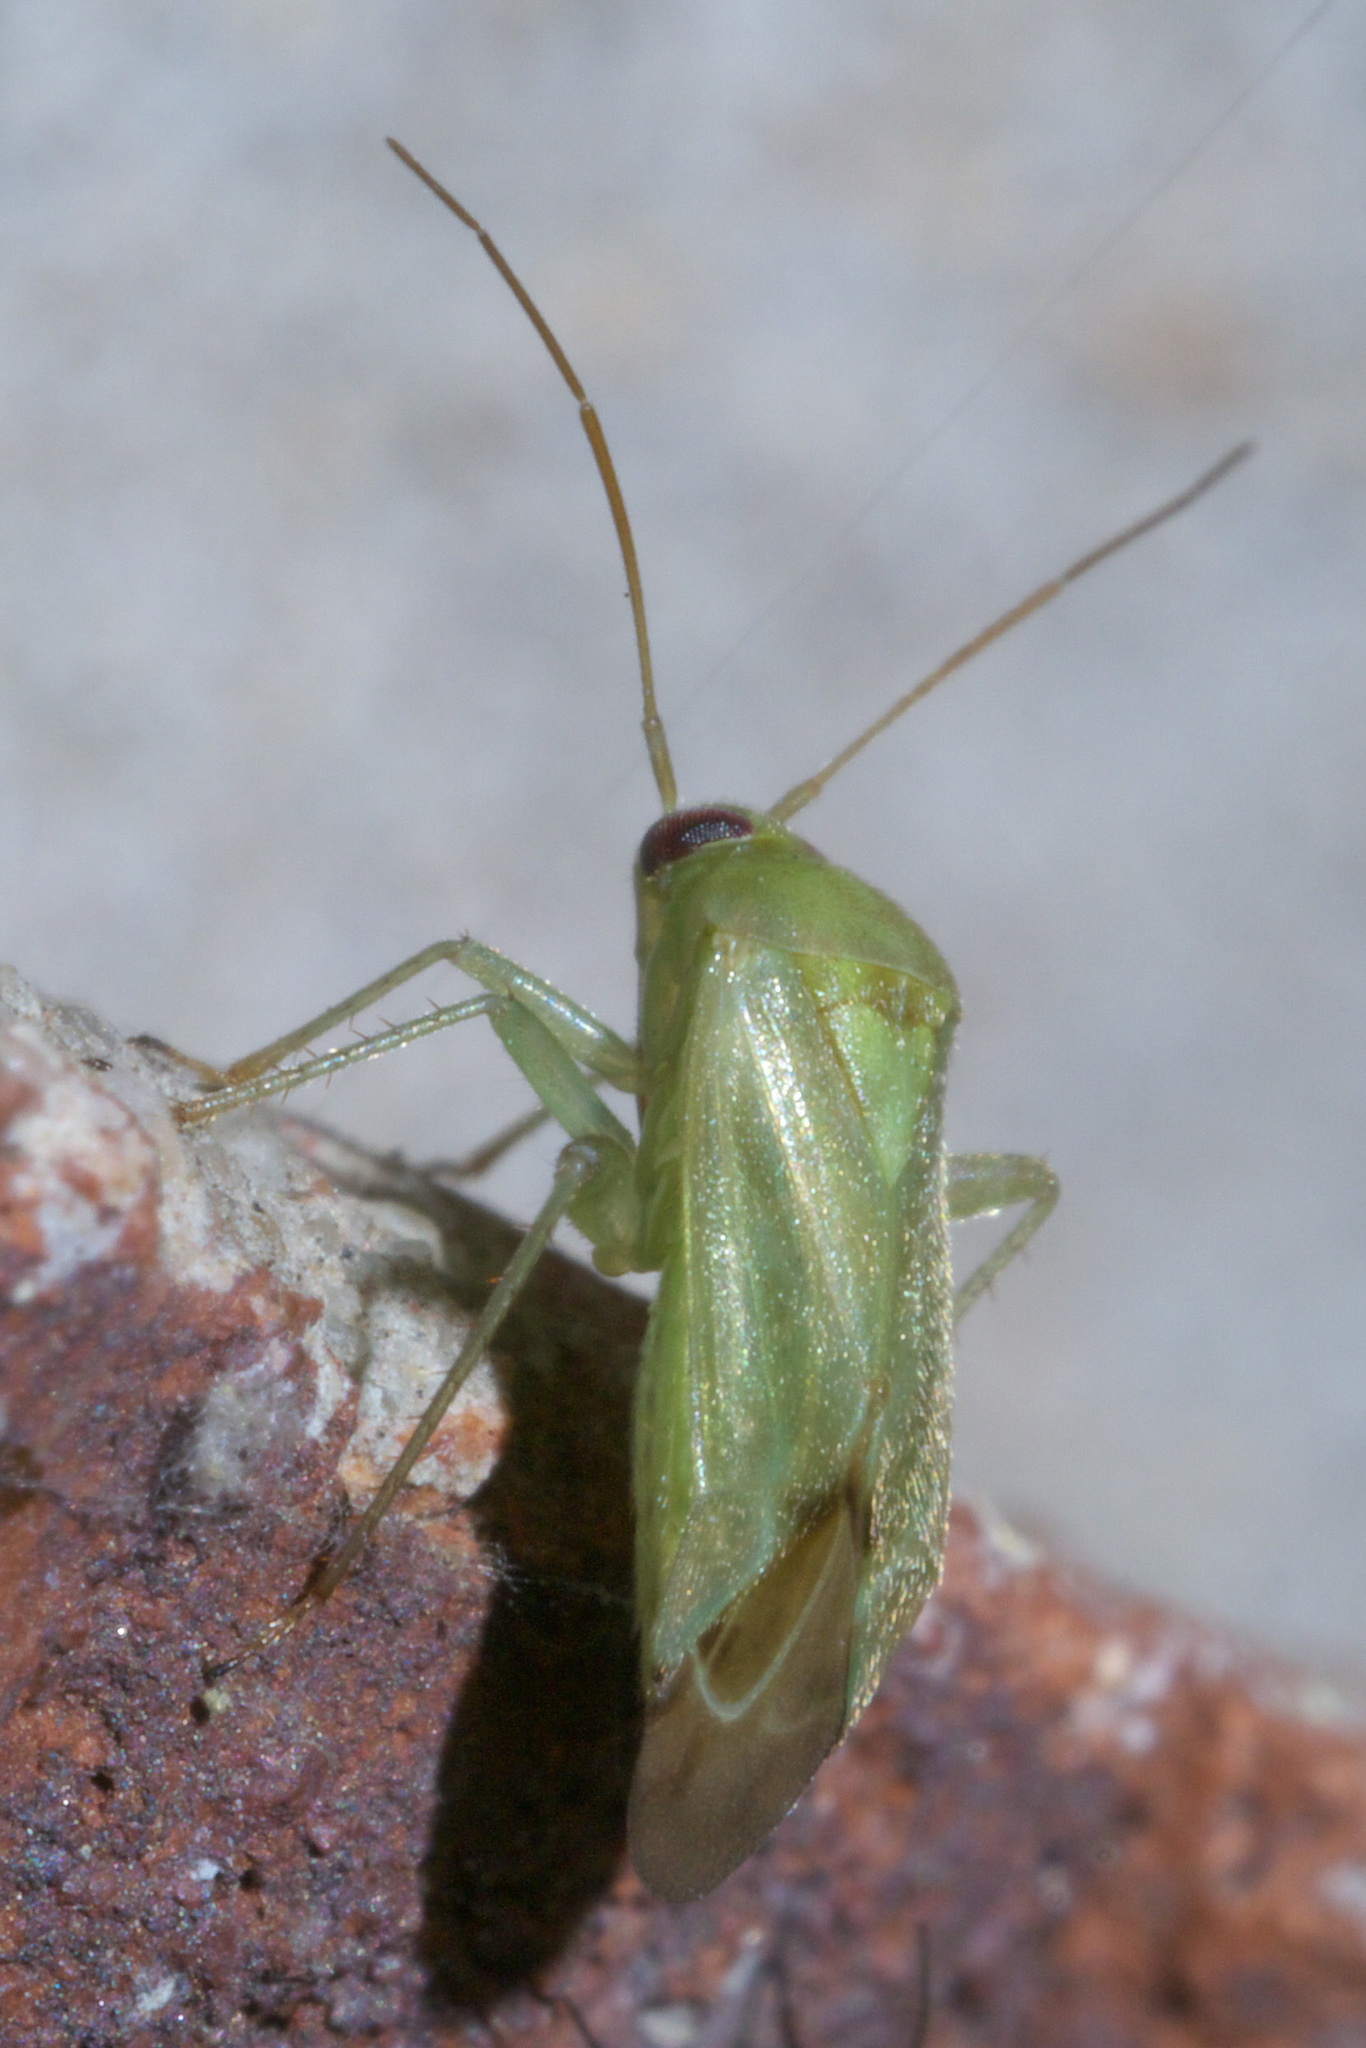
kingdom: Animalia
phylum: Arthropoda
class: Insecta
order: Hemiptera
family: Miridae
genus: Taylorilygus
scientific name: Taylorilygus apicalis
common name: Plant bug
